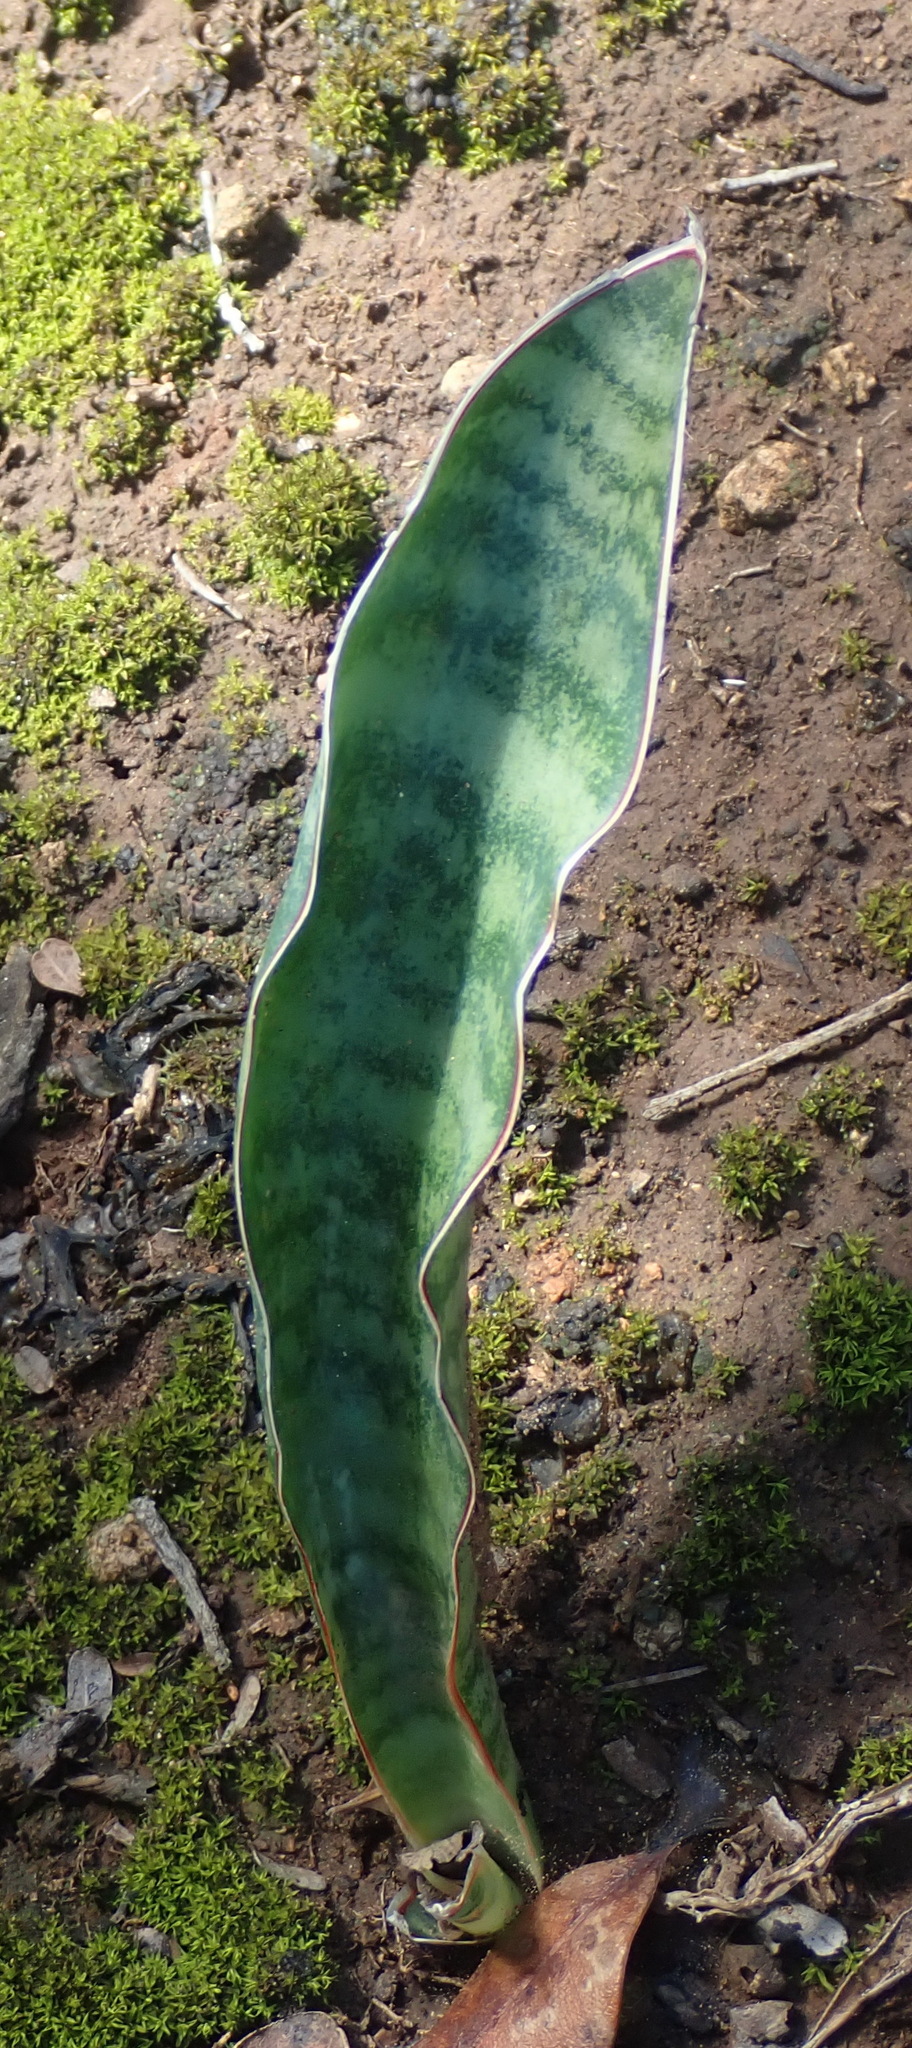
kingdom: Plantae
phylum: Tracheophyta
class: Liliopsida
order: Asparagales
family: Asparagaceae
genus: Dracaena
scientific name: Dracaena hyacinthoides
